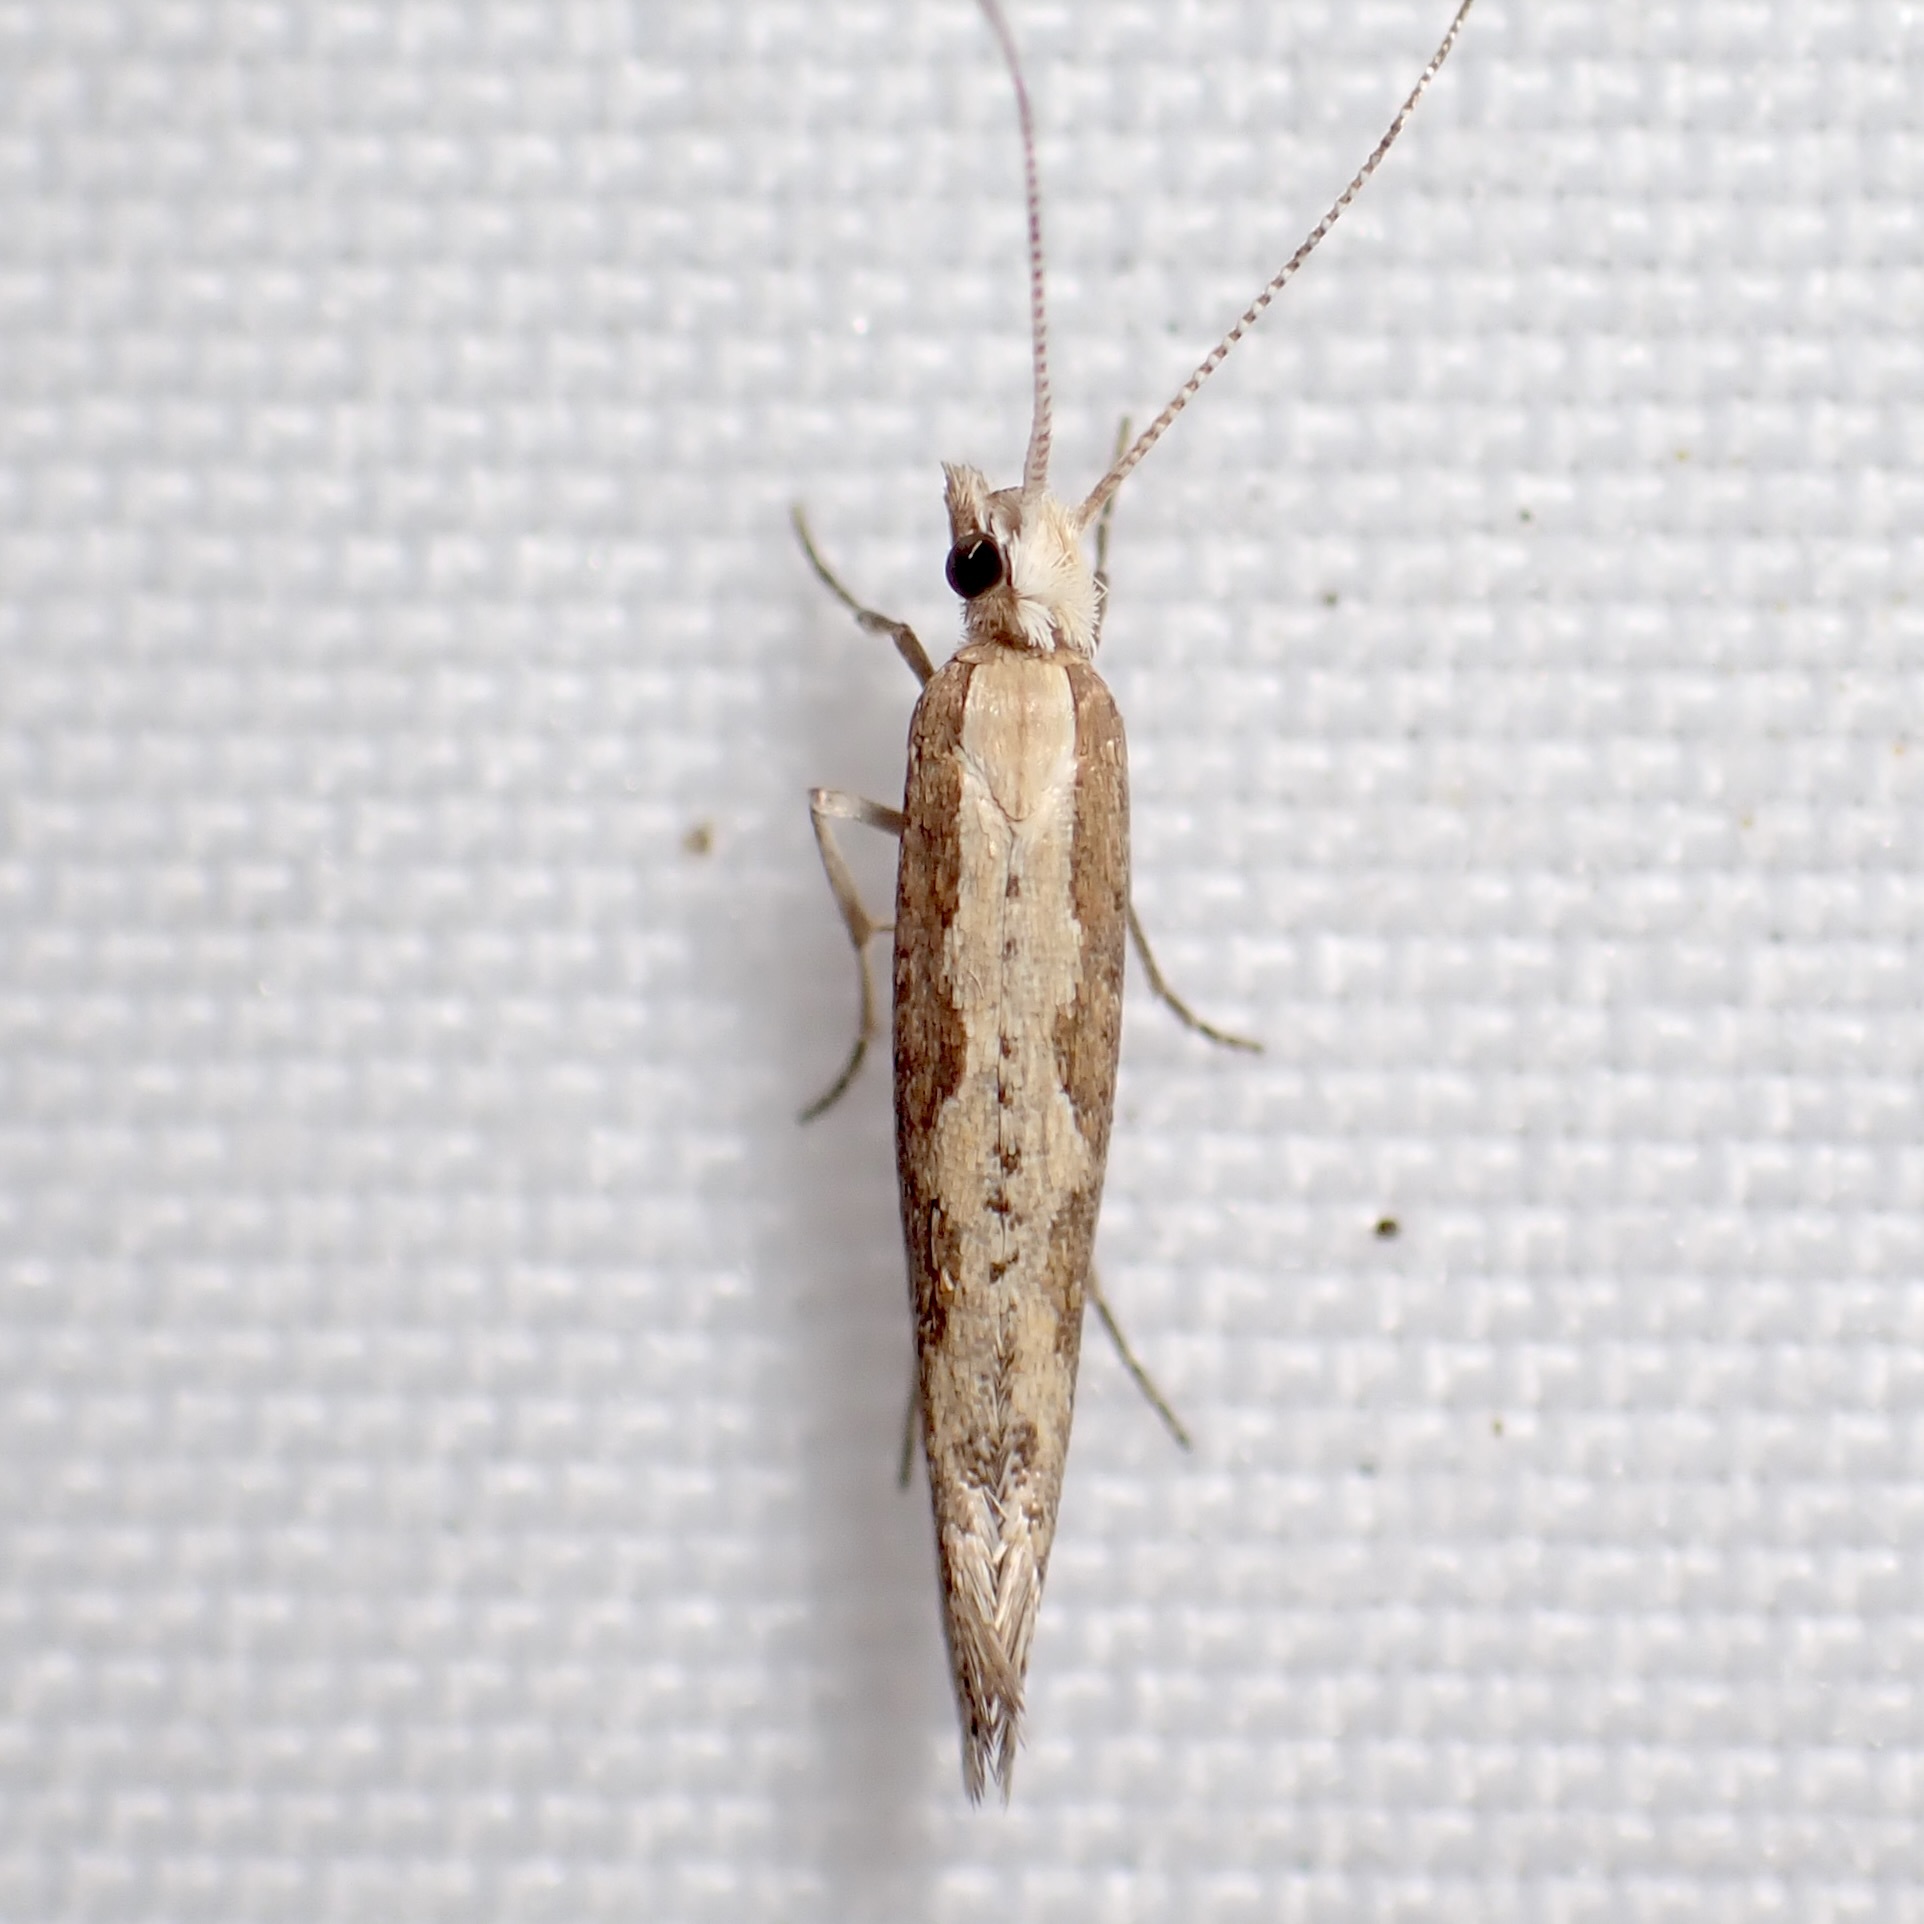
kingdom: Animalia
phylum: Arthropoda
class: Insecta
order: Lepidoptera
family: Plutellidae
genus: Plutella
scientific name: Plutella xylostella
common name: Diamond-back moth
